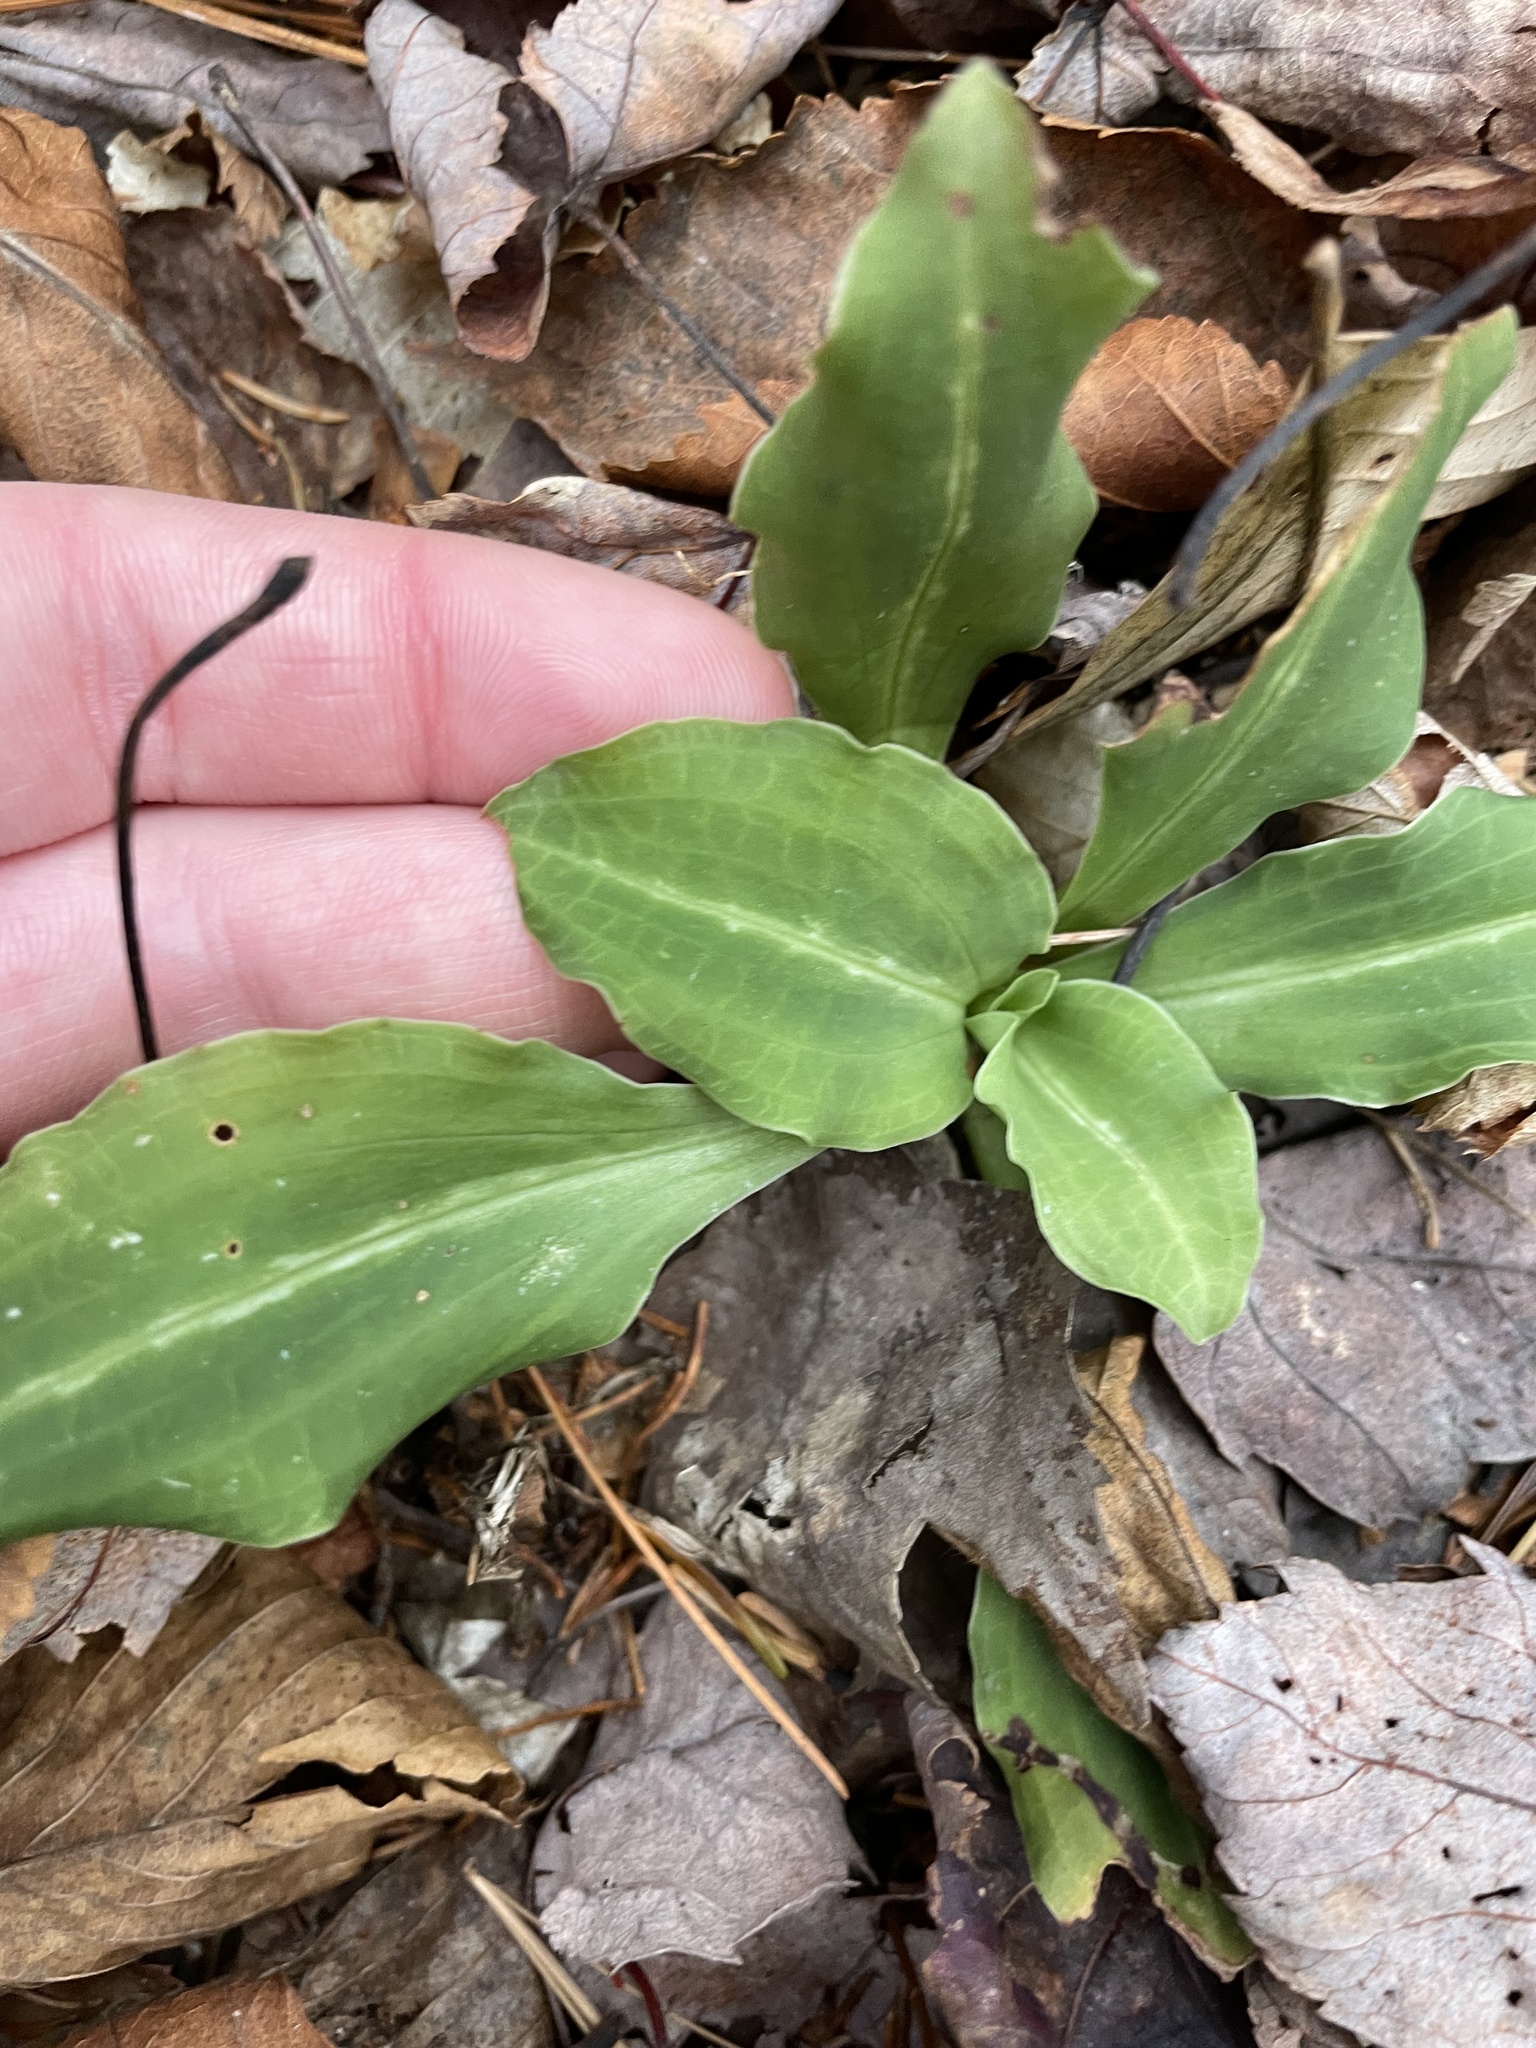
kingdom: Plantae
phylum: Tracheophyta
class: Liliopsida
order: Asparagales
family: Orchidaceae
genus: Goodyera
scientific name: Goodyera oblongifolia
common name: Giant rattlesnake-plantain
